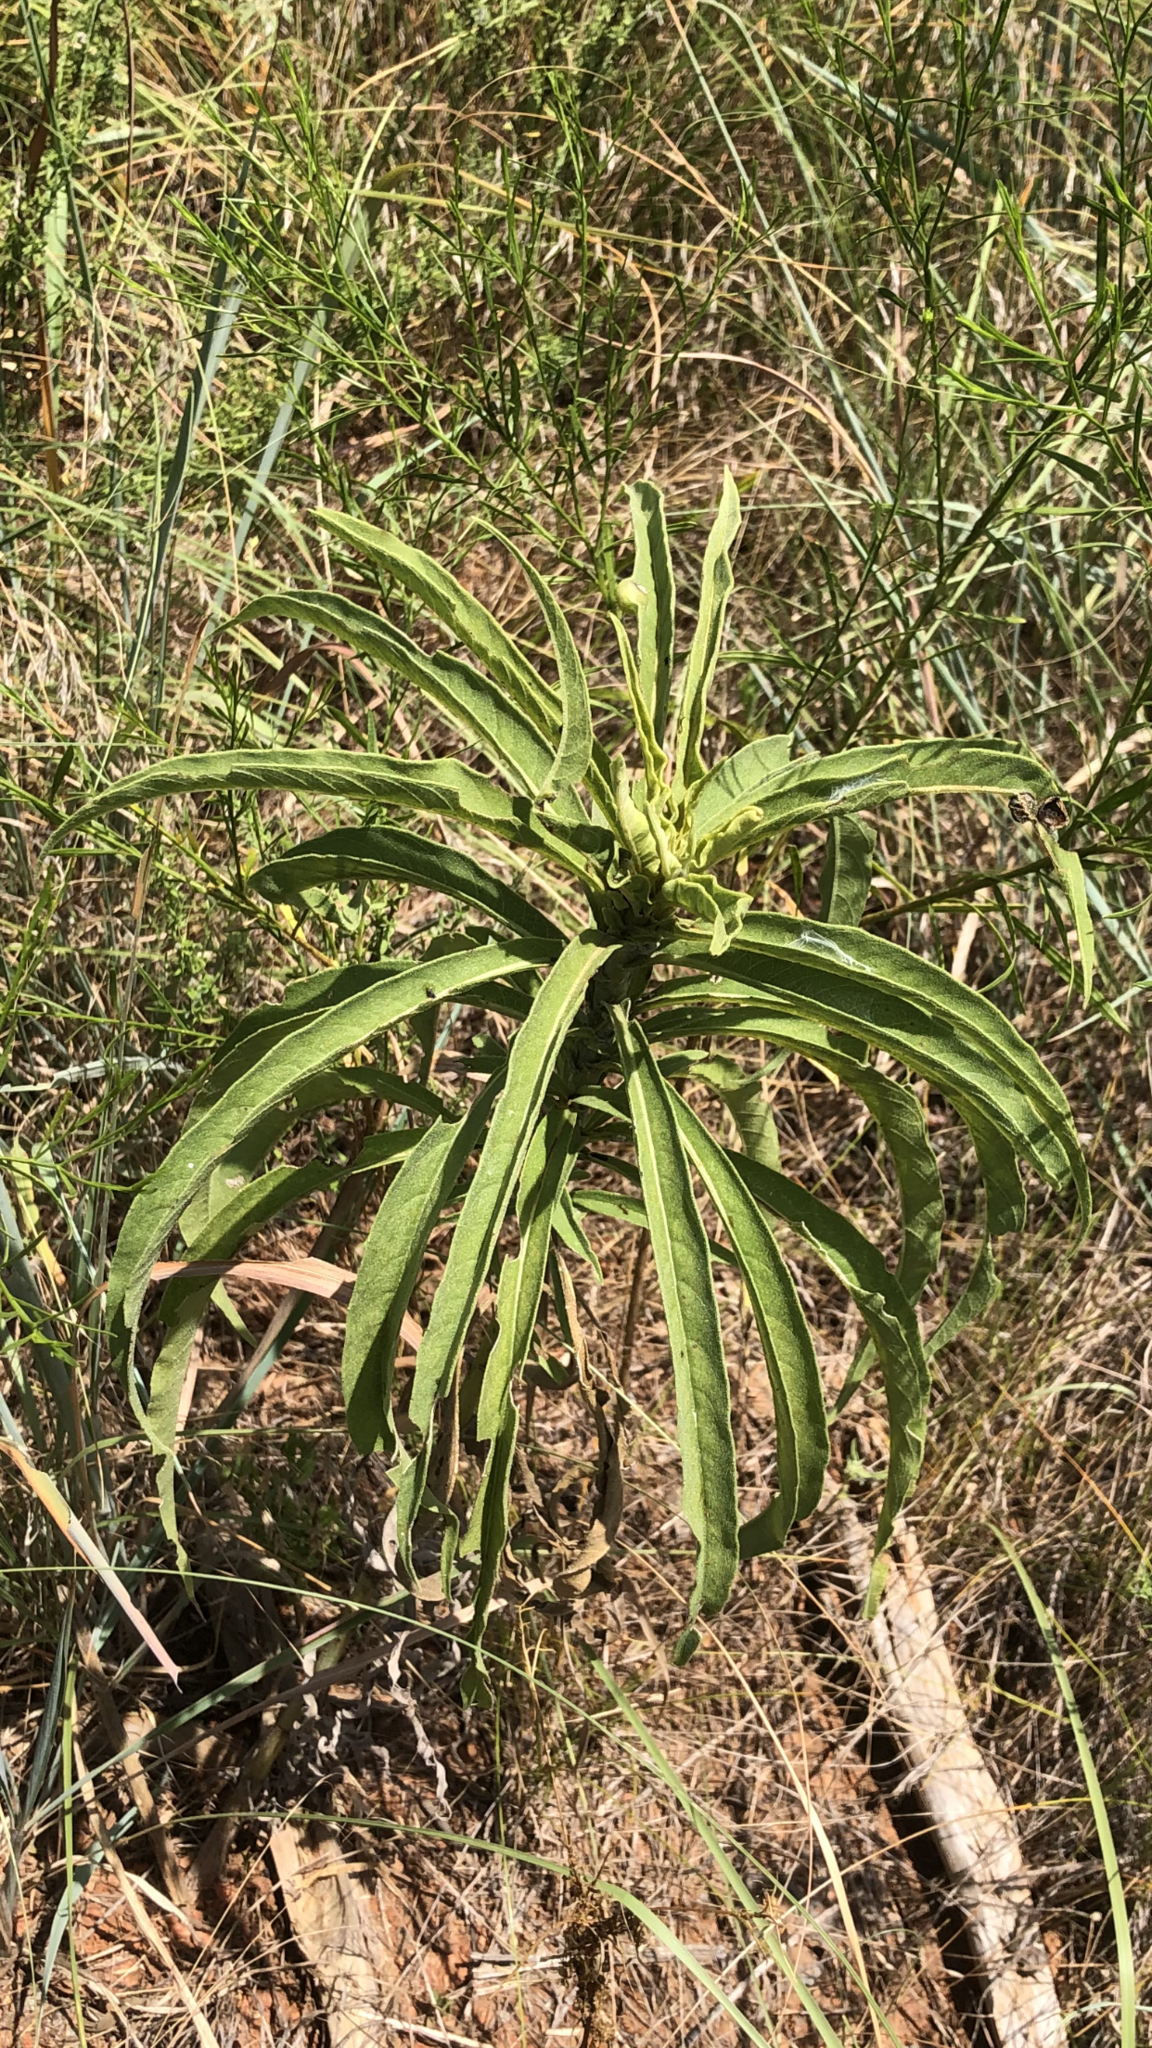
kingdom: Plantae
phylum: Tracheophyta
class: Magnoliopsida
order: Asterales
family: Asteraceae
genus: Helianthus
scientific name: Helianthus maximiliani
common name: Maximilian's sunflower
